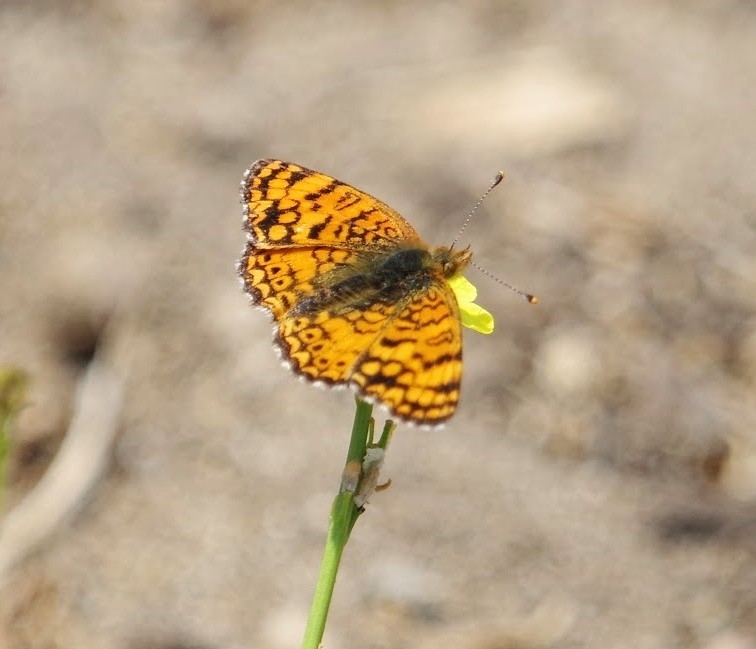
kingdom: Animalia
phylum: Arthropoda
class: Insecta
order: Lepidoptera
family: Nymphalidae
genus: Eresia
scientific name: Eresia aveyrona
